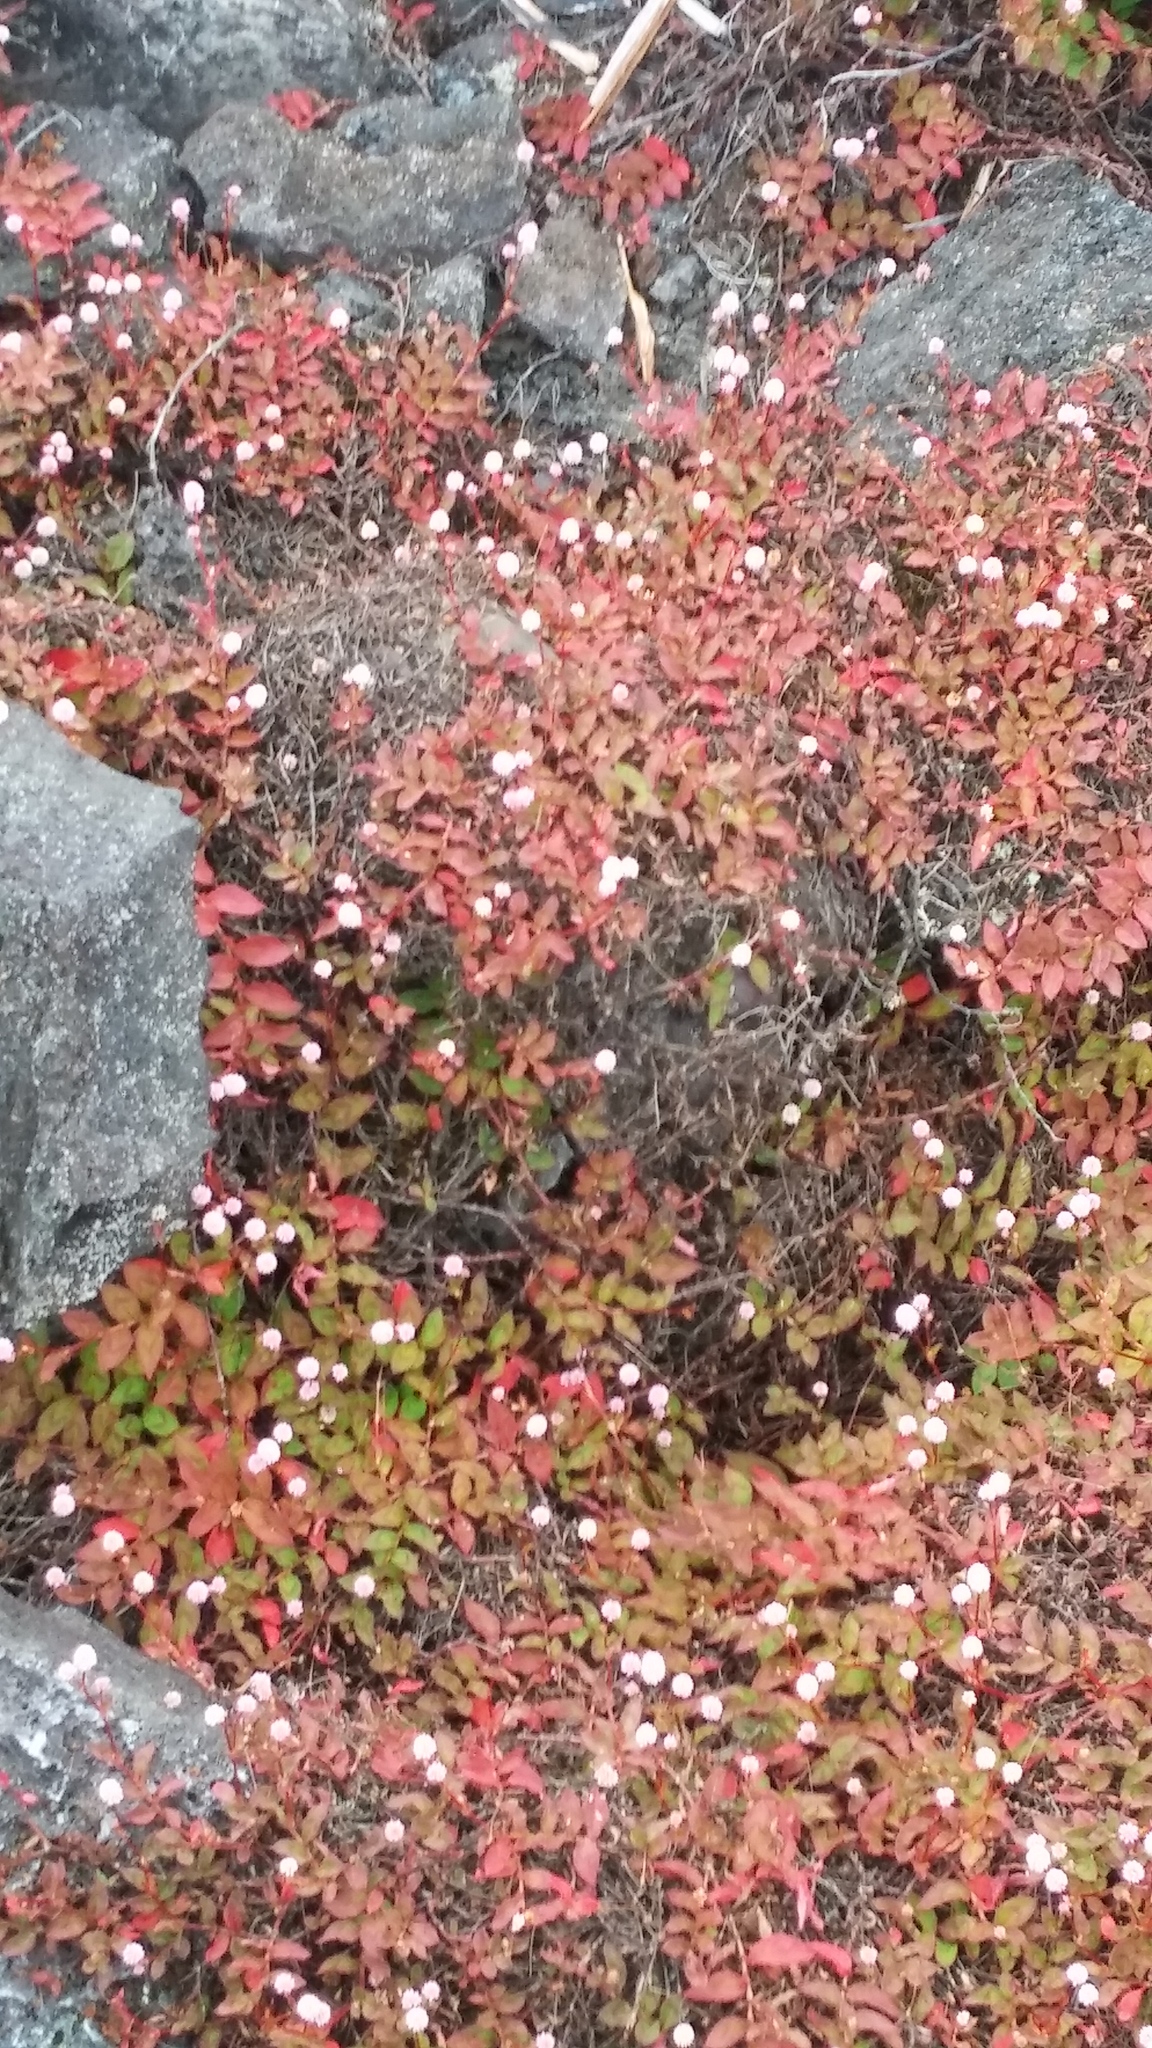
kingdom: Plantae
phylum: Tracheophyta
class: Magnoliopsida
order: Caryophyllales
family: Polygonaceae
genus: Persicaria
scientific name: Persicaria capitata
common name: Pinkhead smartweed
